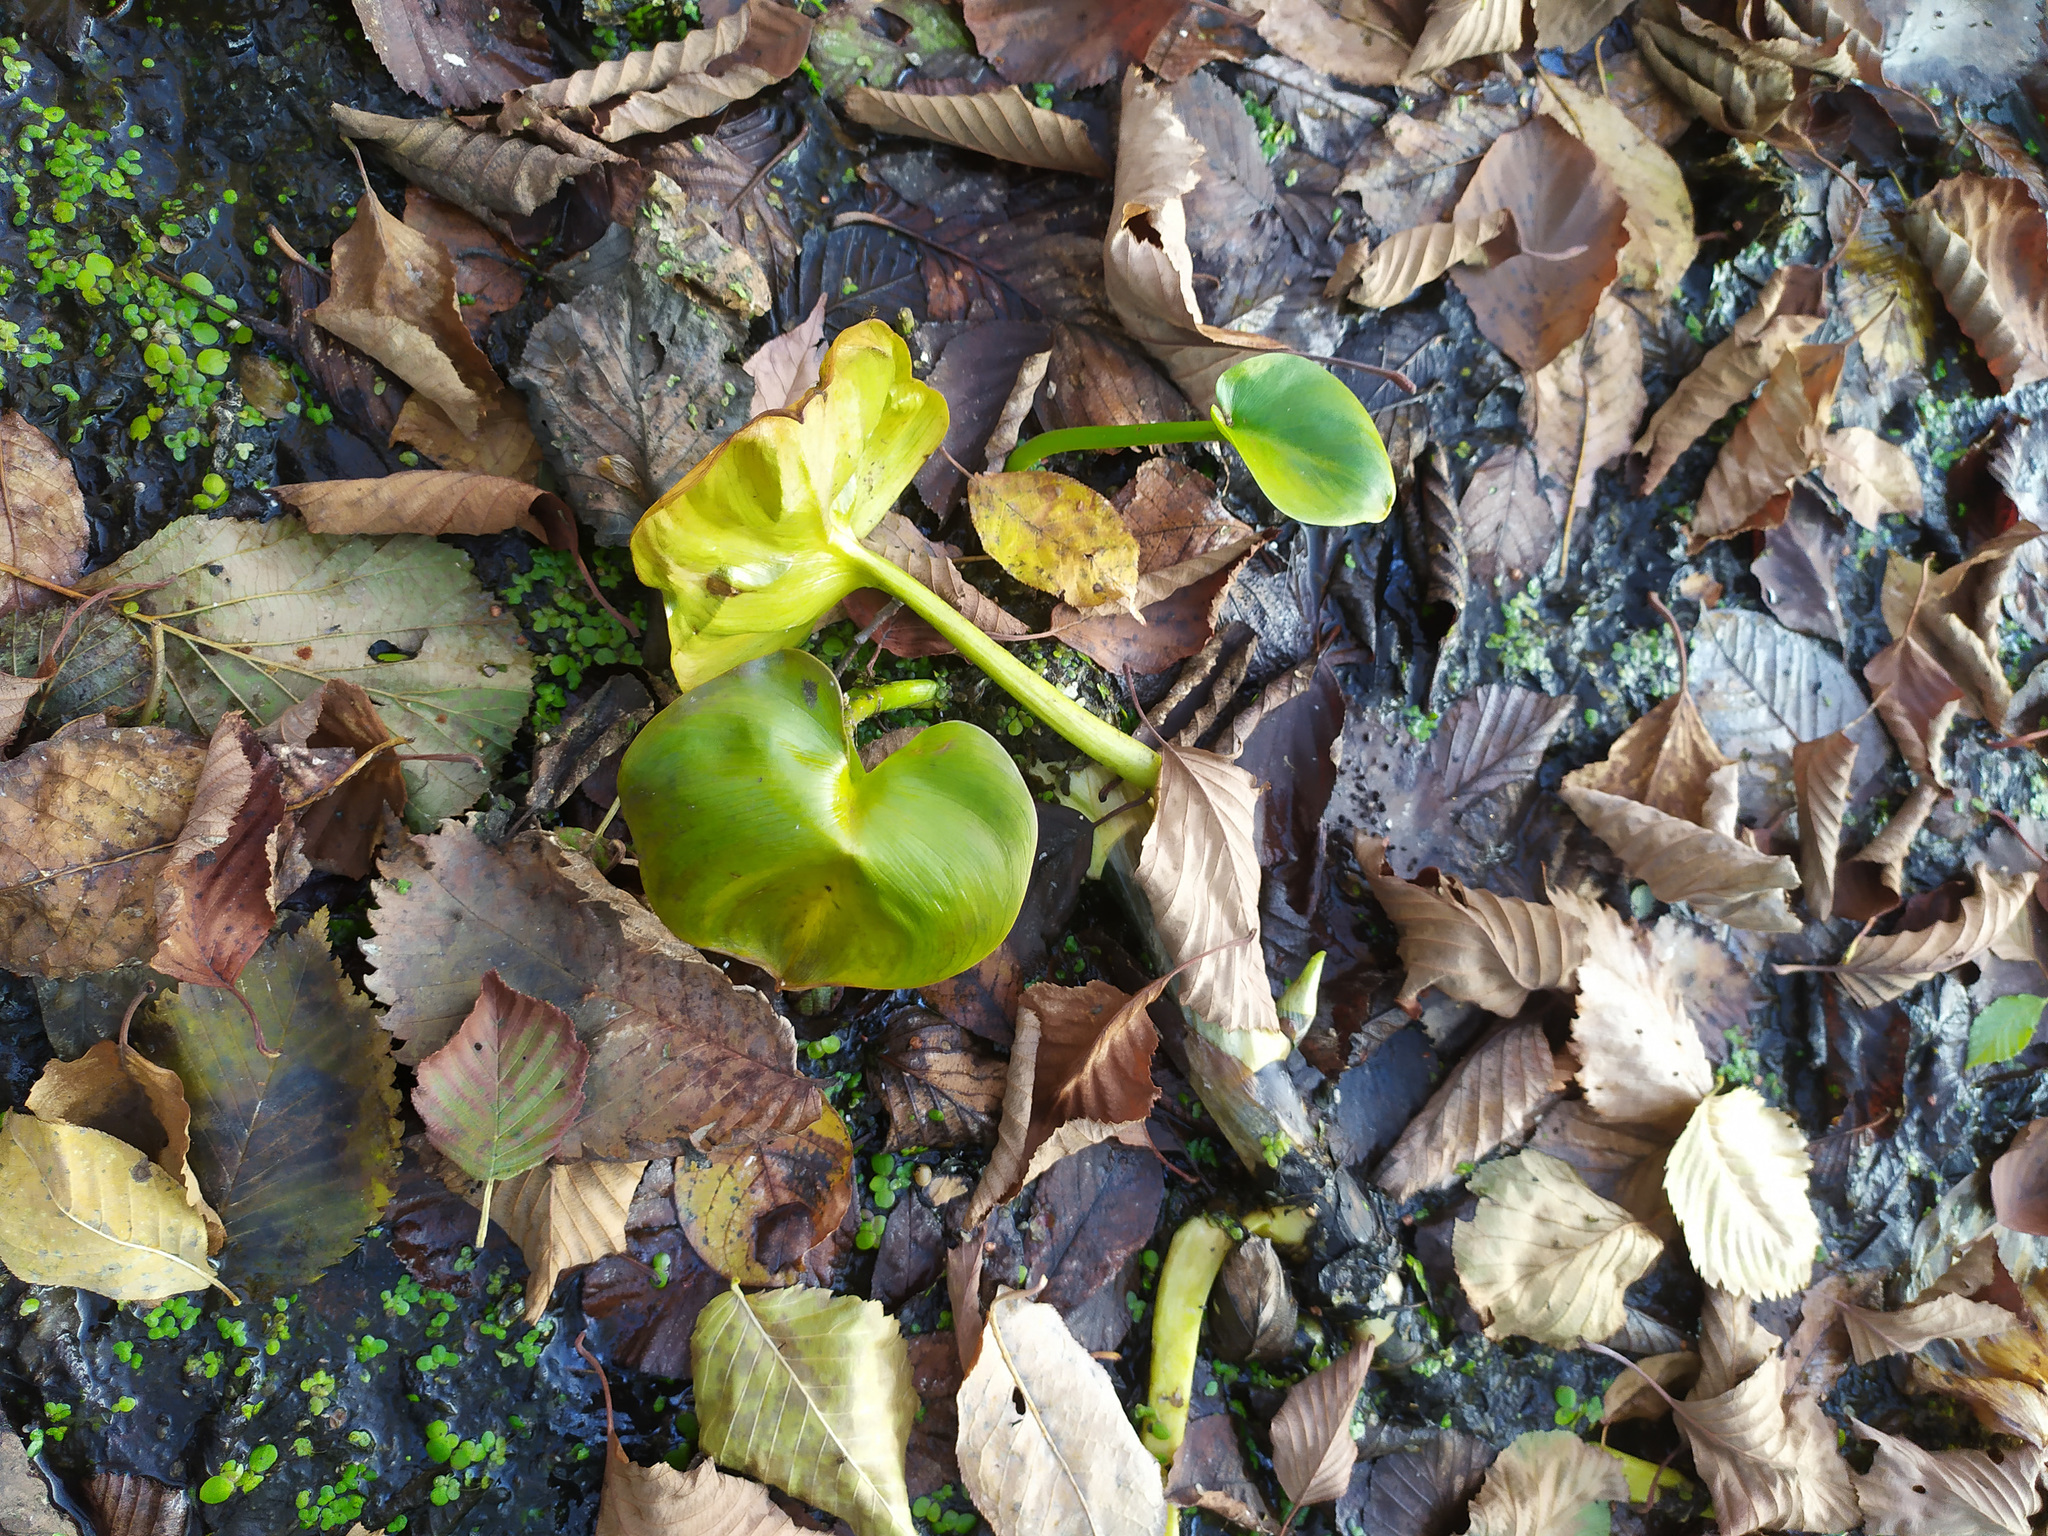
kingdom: Plantae
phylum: Tracheophyta
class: Liliopsida
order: Alismatales
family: Araceae
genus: Calla
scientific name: Calla palustris
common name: Bog arum
